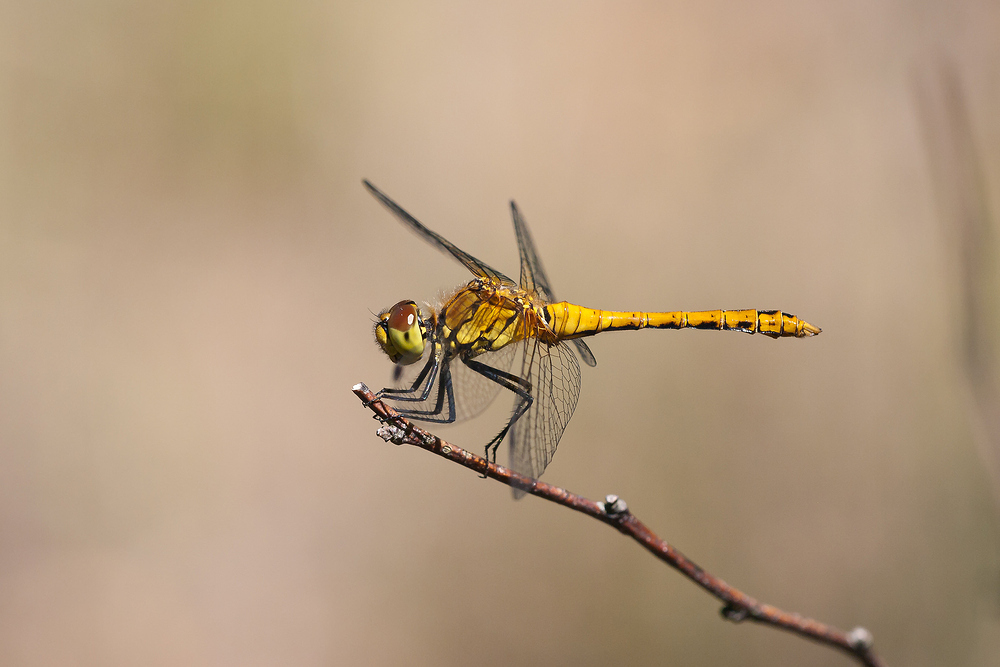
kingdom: Animalia
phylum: Arthropoda
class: Insecta
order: Odonata
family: Libellulidae
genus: Sympetrum
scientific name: Sympetrum sanguineum
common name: Ruddy darter
